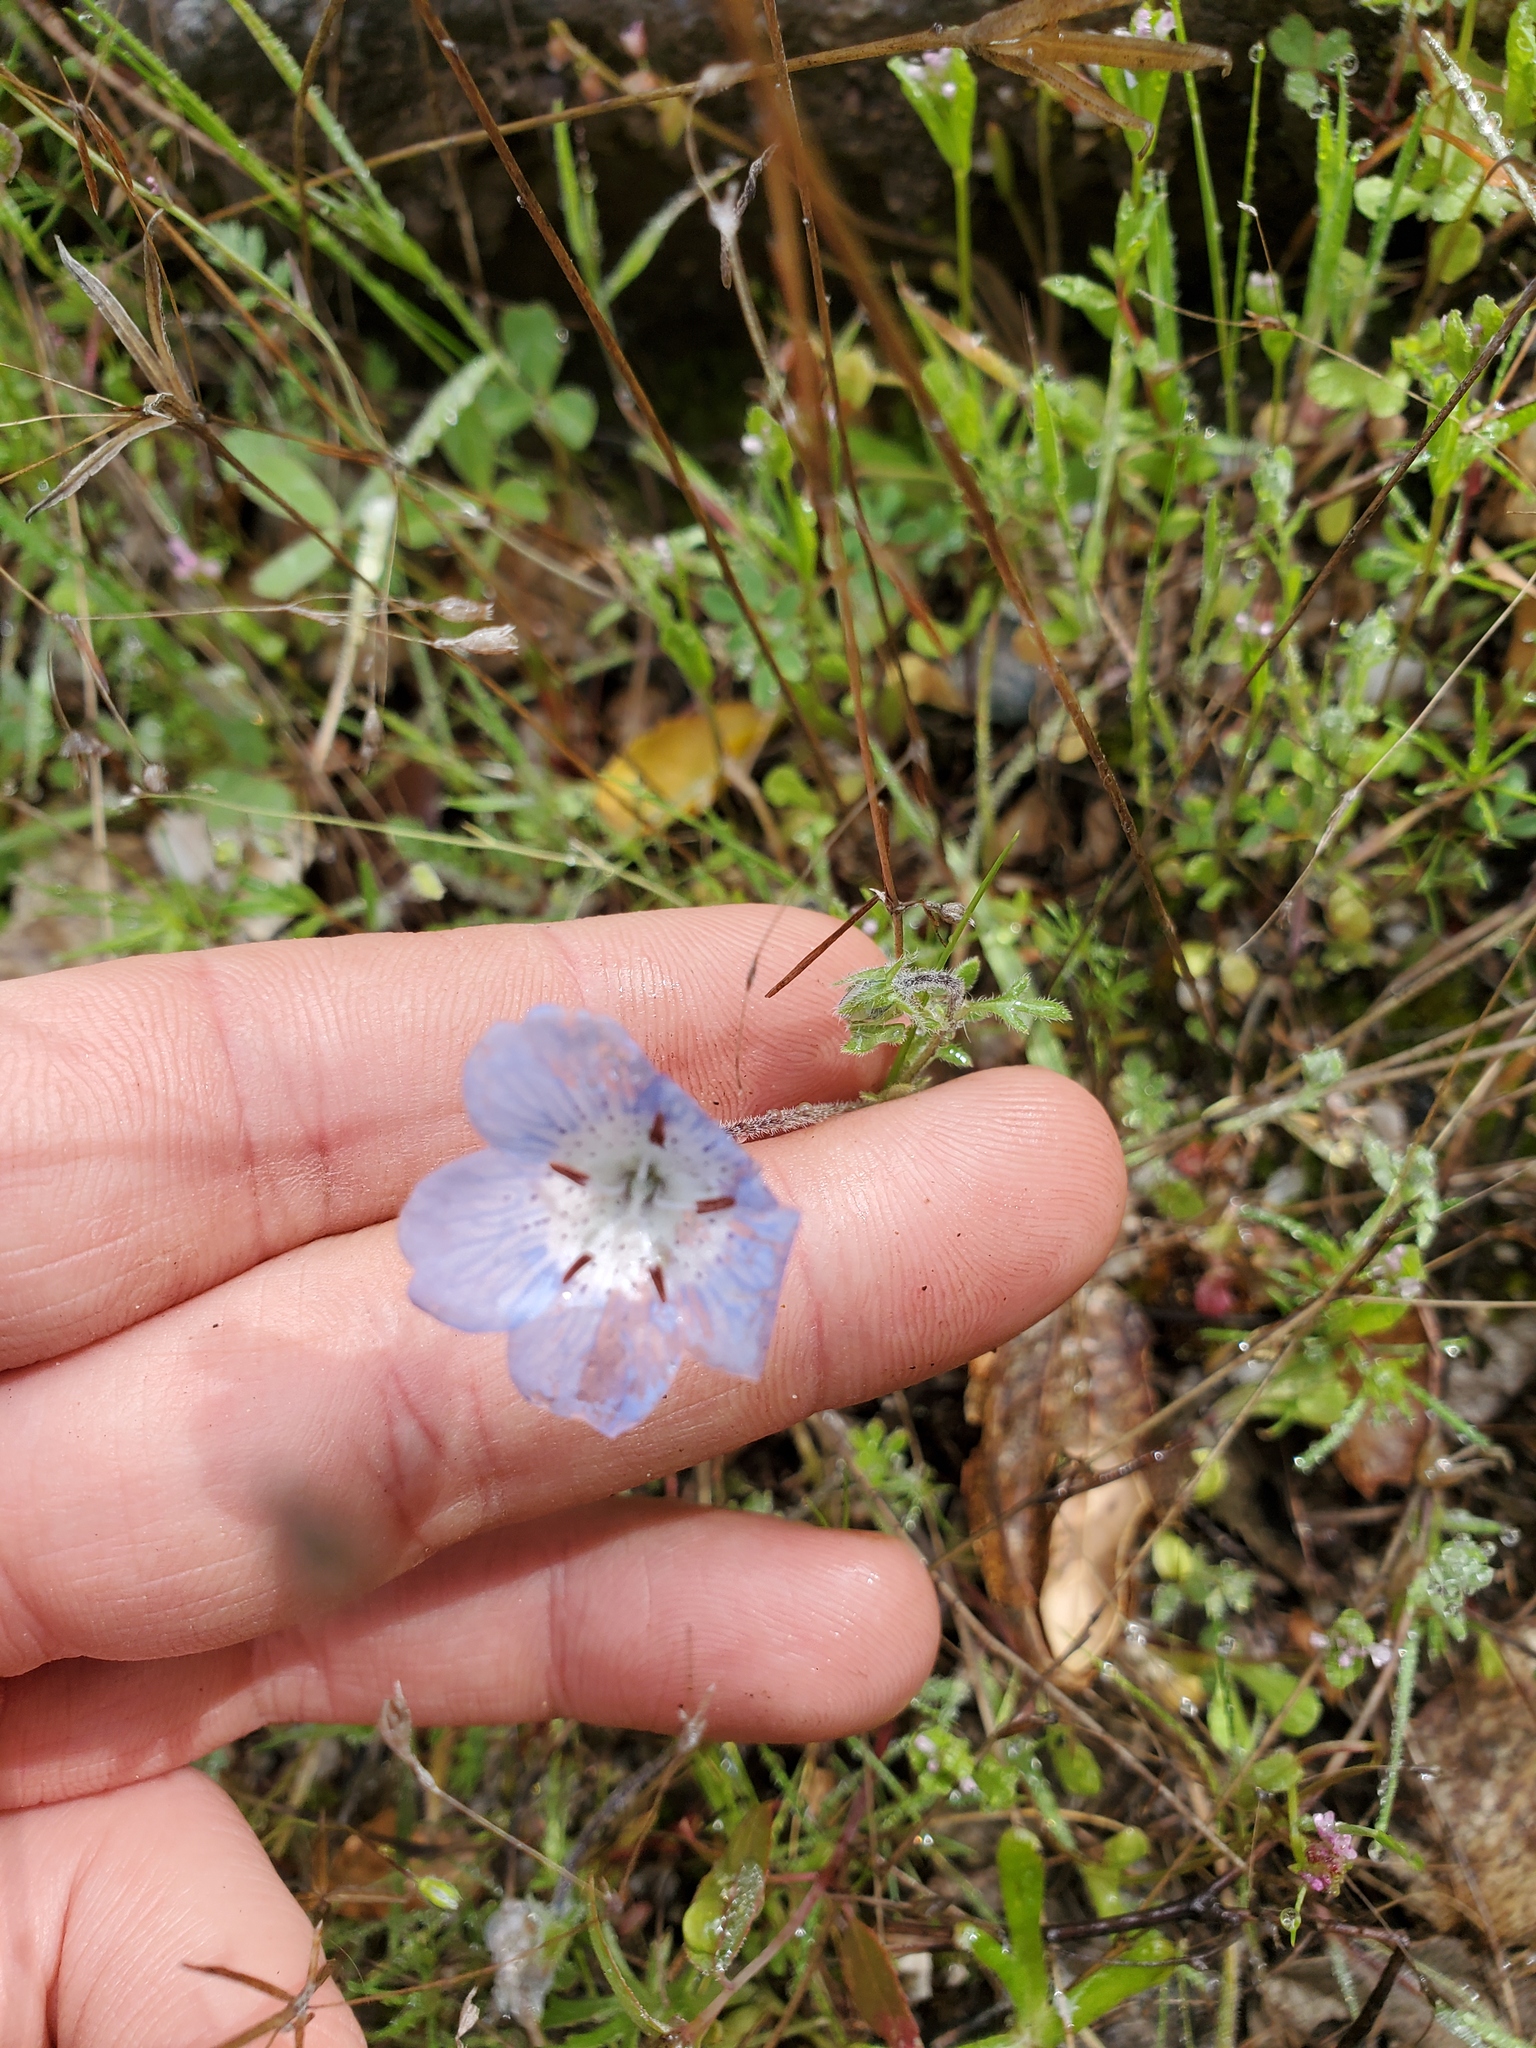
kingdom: Plantae
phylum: Tracheophyta
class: Magnoliopsida
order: Boraginales
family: Hydrophyllaceae
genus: Nemophila
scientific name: Nemophila menziesii
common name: Baby's-blue-eyes
